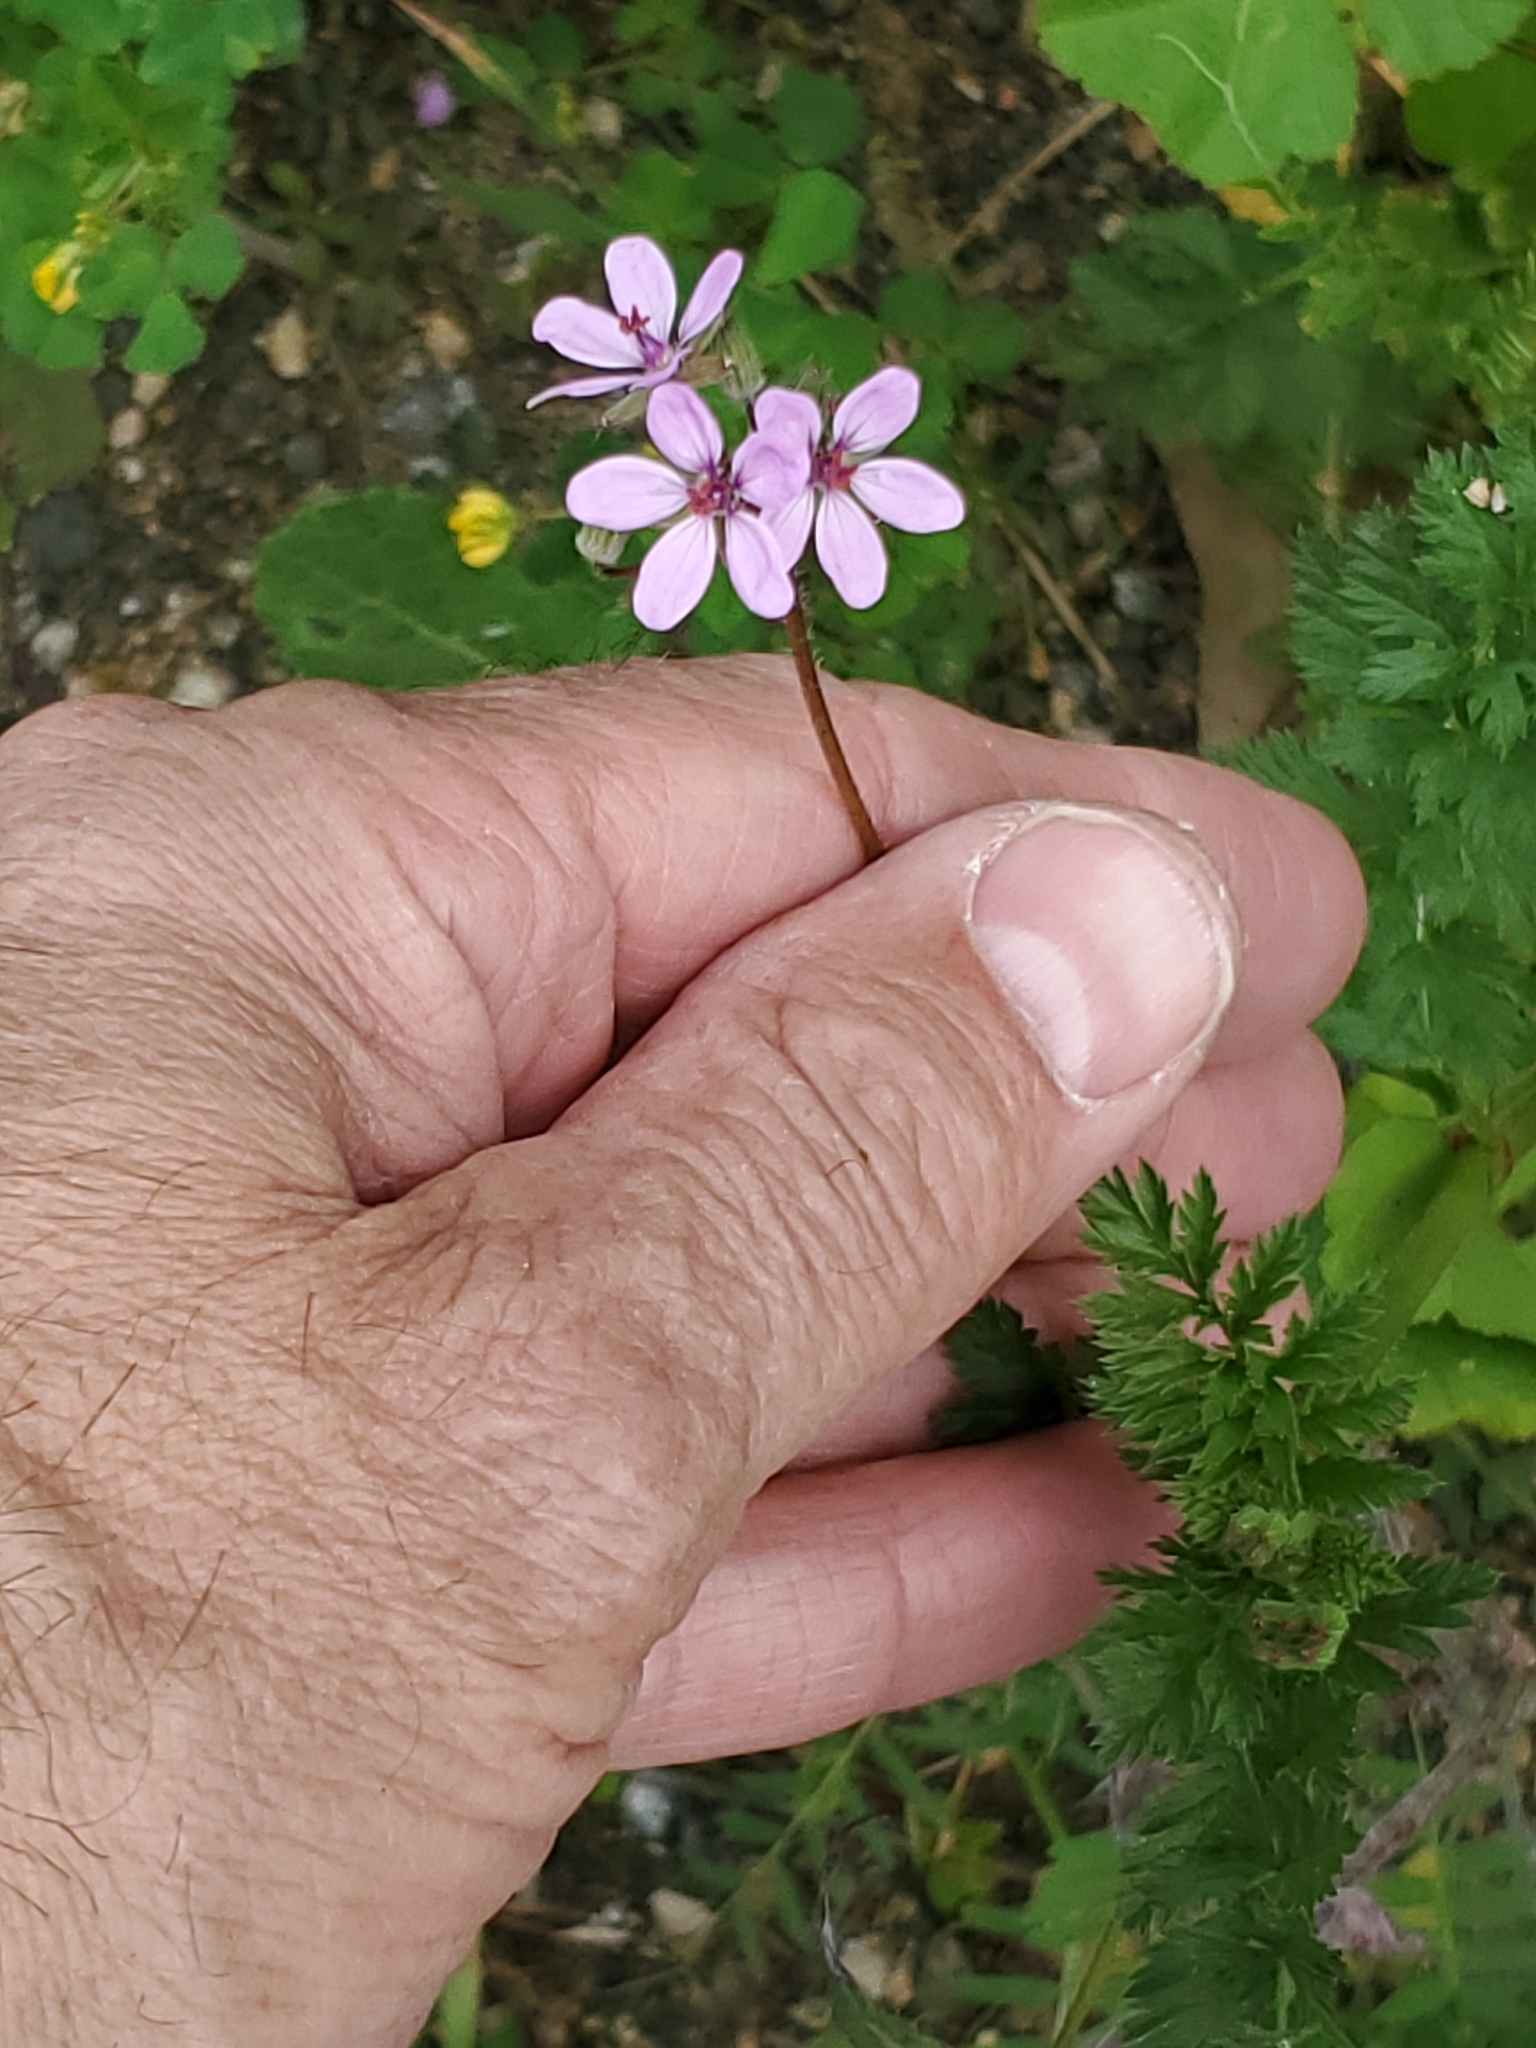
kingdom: Plantae
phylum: Tracheophyta
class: Magnoliopsida
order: Geraniales
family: Geraniaceae
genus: Erodium
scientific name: Erodium cicutarium
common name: Common stork's-bill
